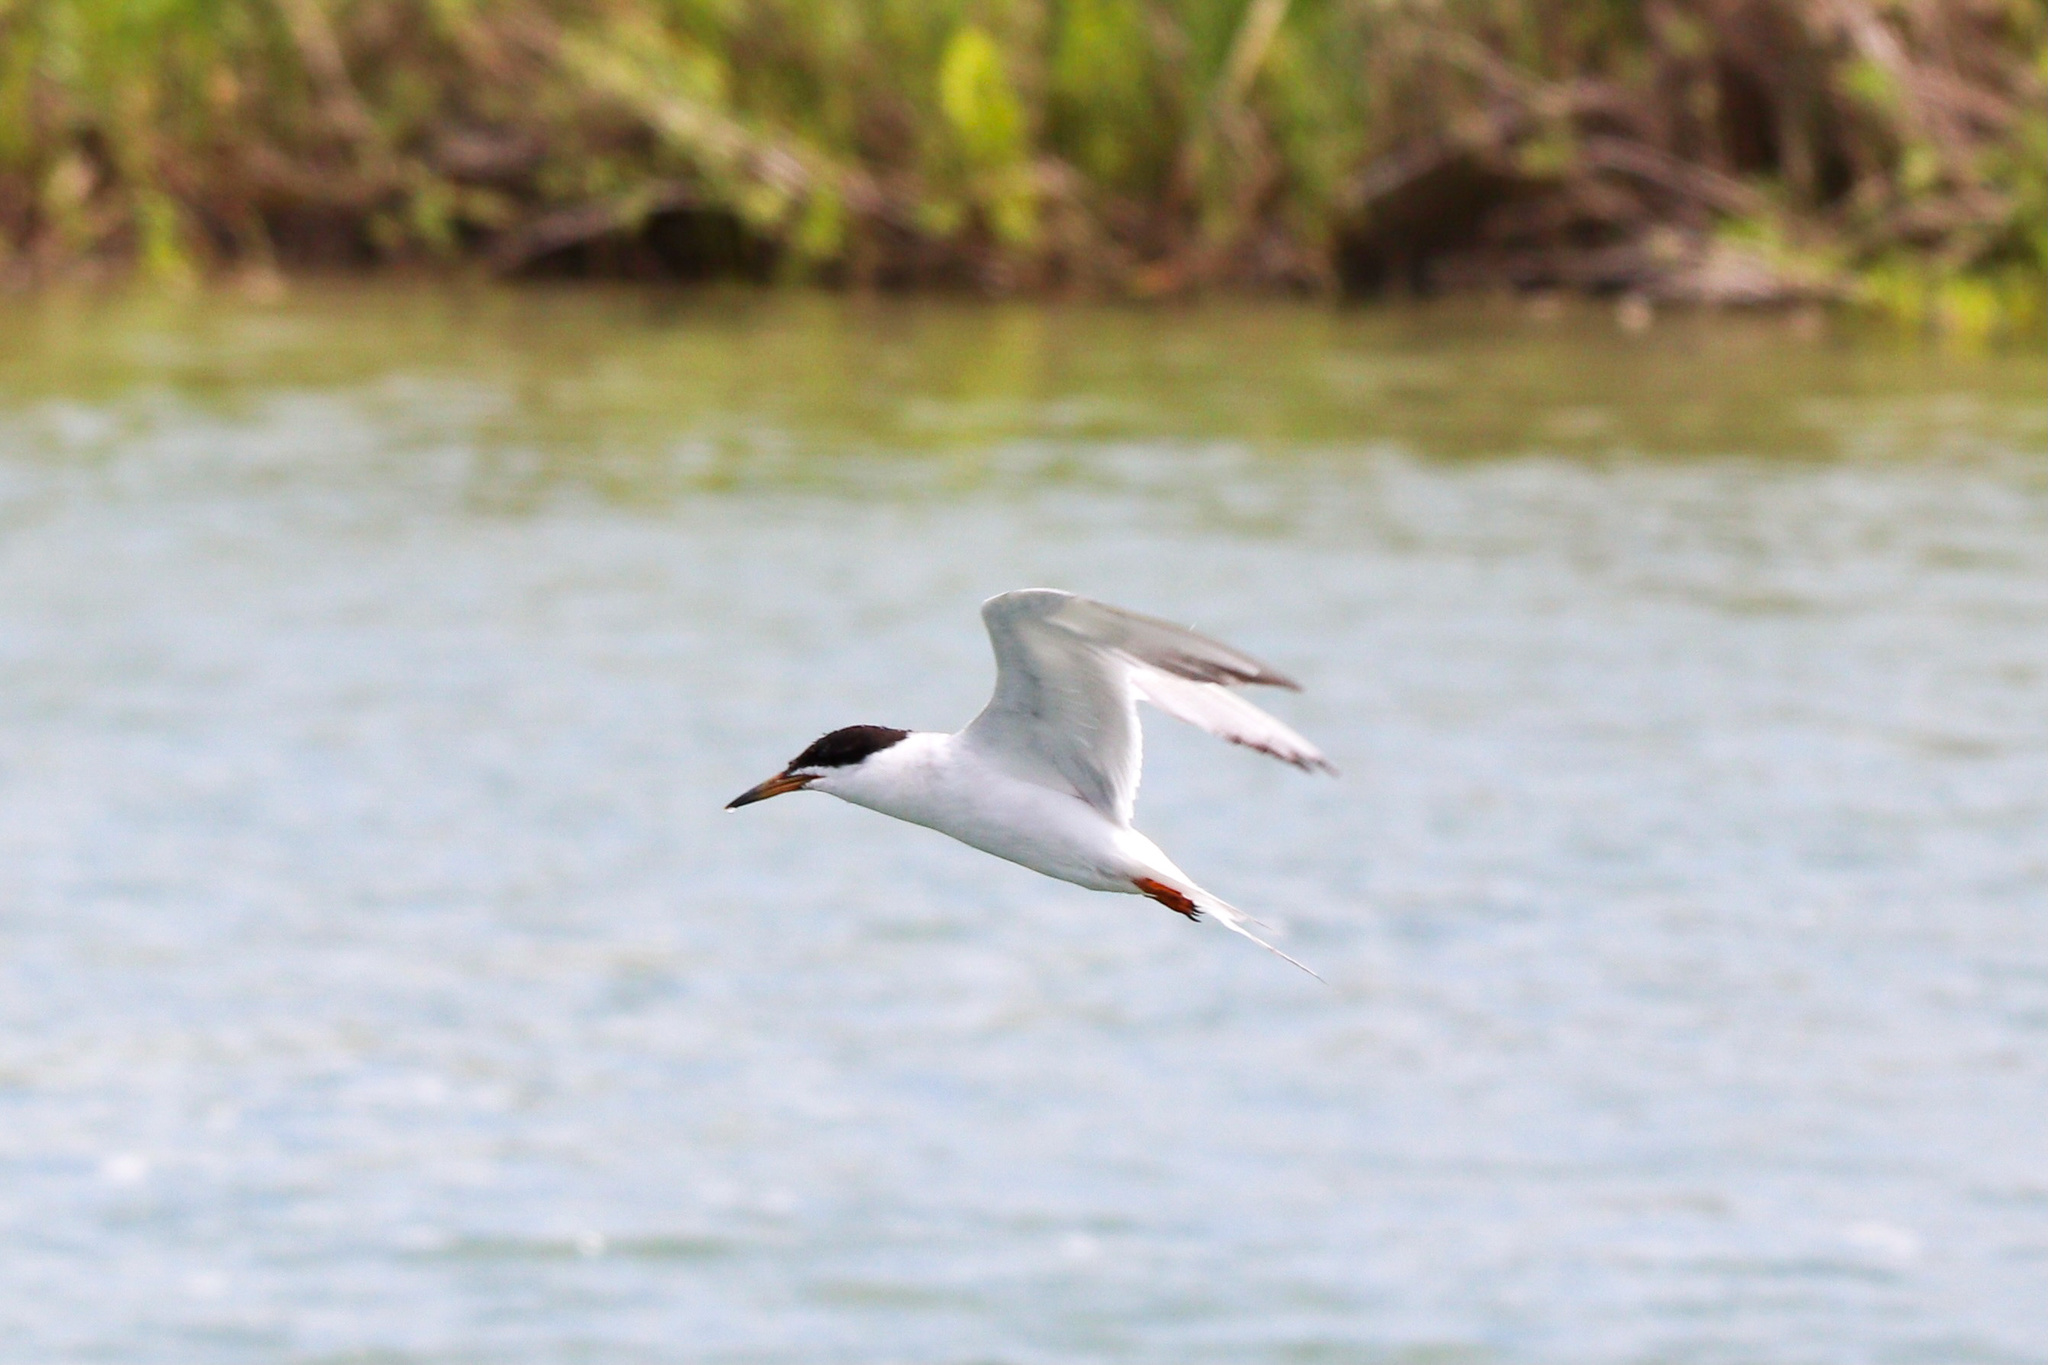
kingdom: Animalia
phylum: Chordata
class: Aves
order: Charadriiformes
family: Laridae
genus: Sterna
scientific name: Sterna forsteri
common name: Forster's tern
